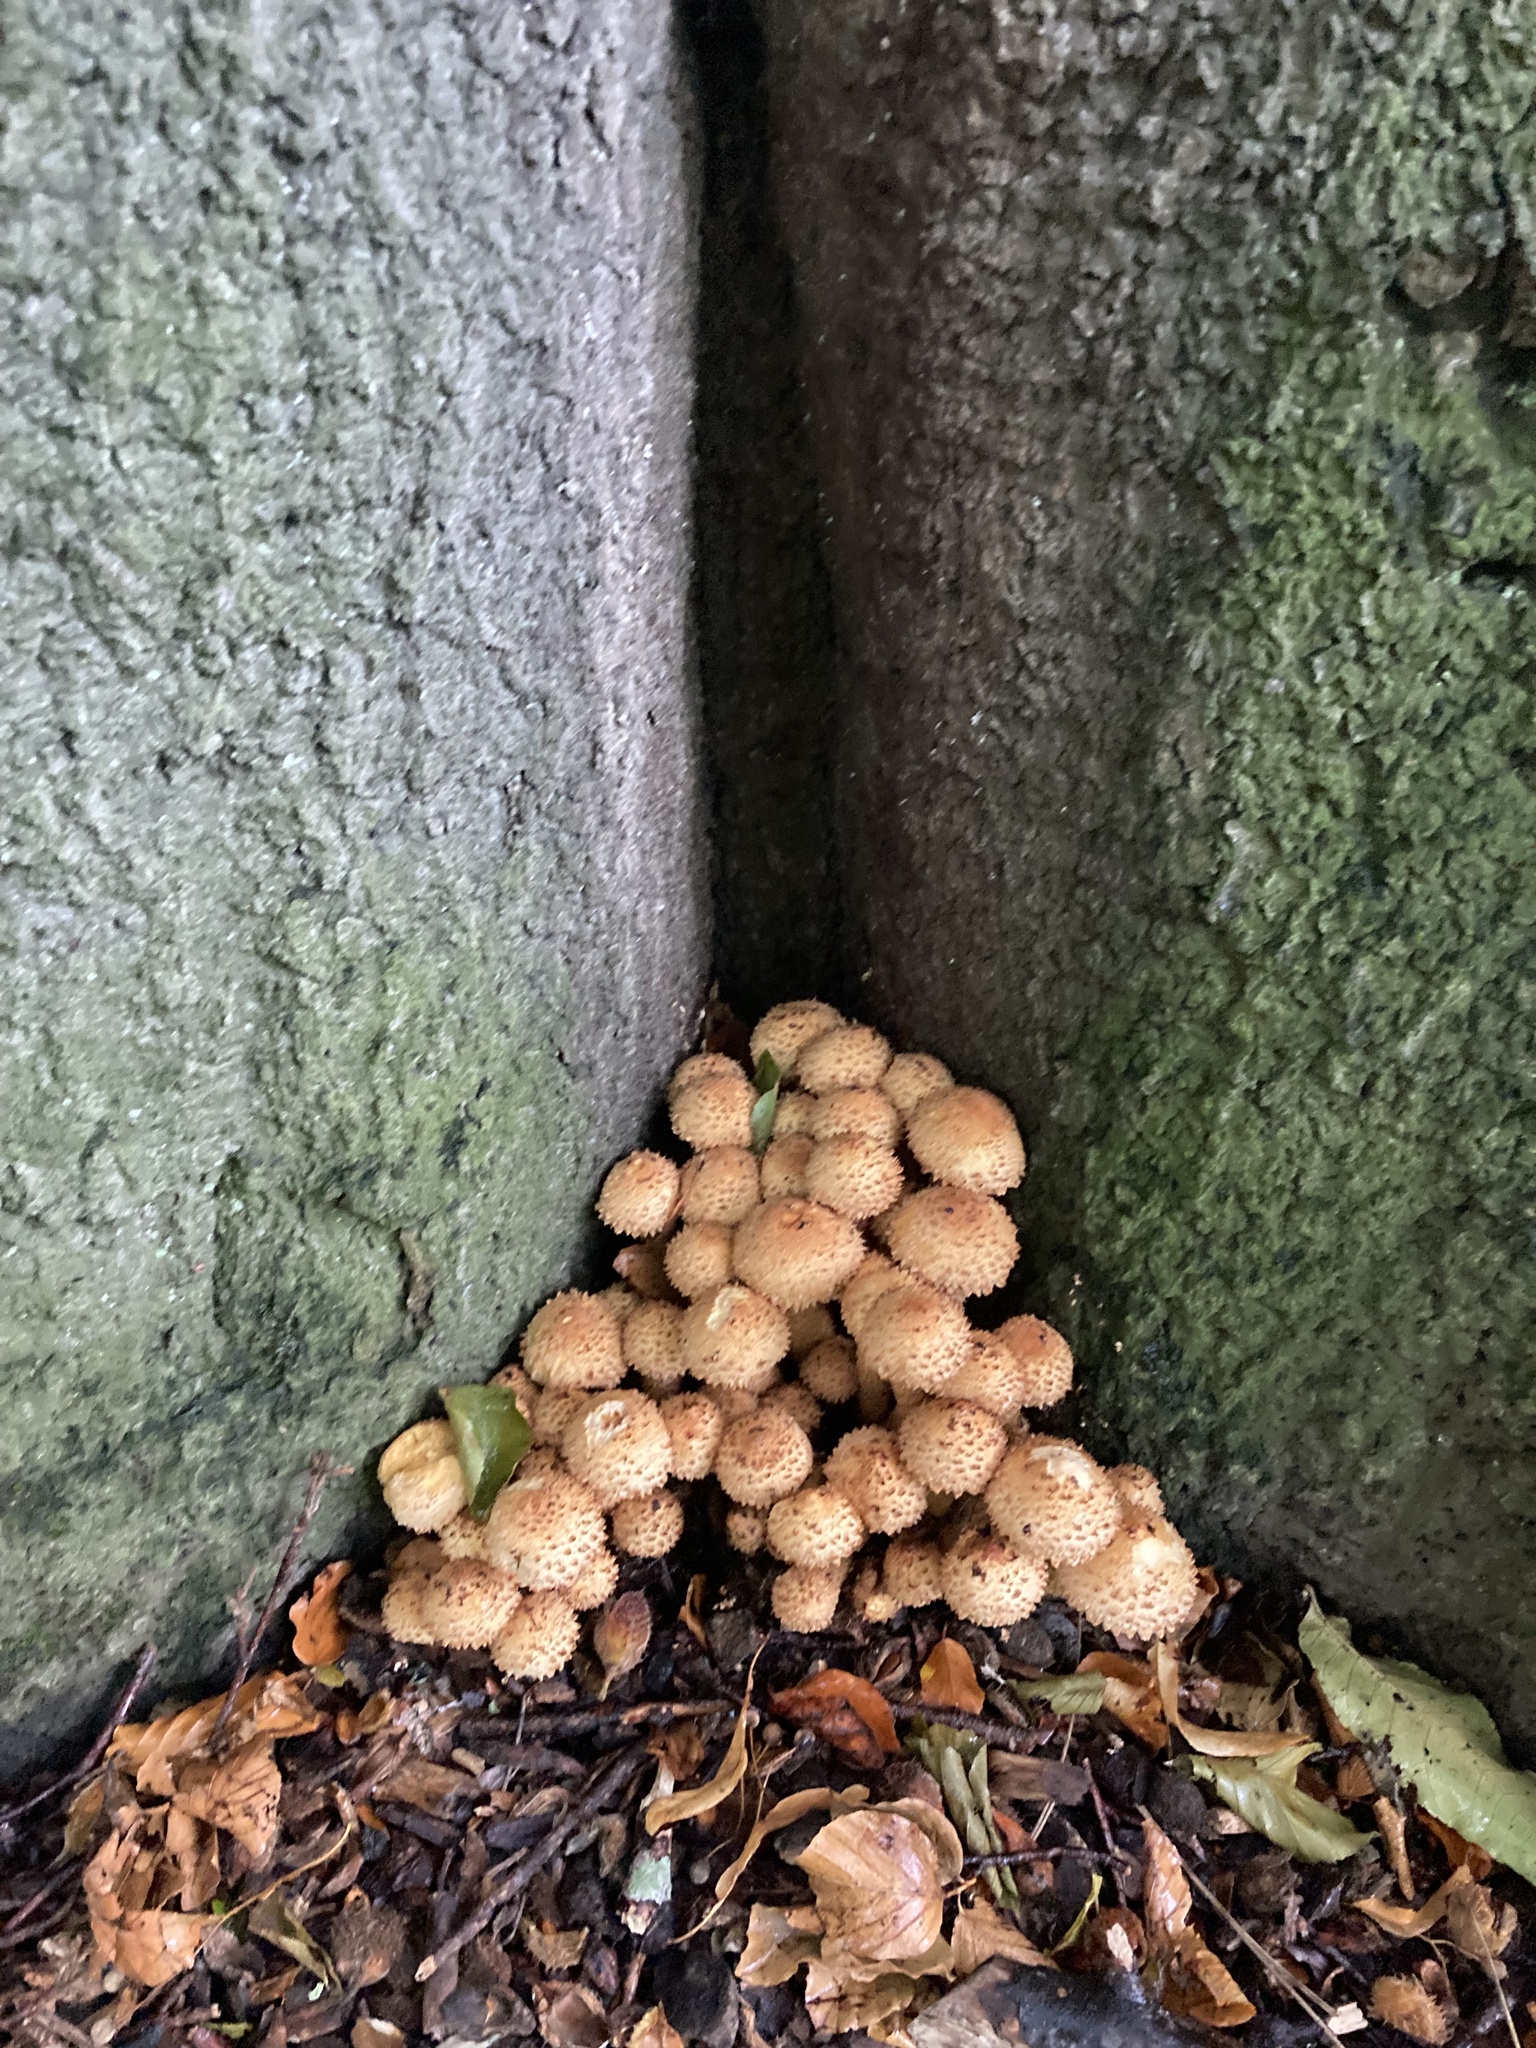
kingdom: Fungi
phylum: Basidiomycota
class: Agaricomycetes
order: Agaricales
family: Strophariaceae
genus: Pholiota
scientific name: Pholiota squarrosa
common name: Shaggy pholiota
